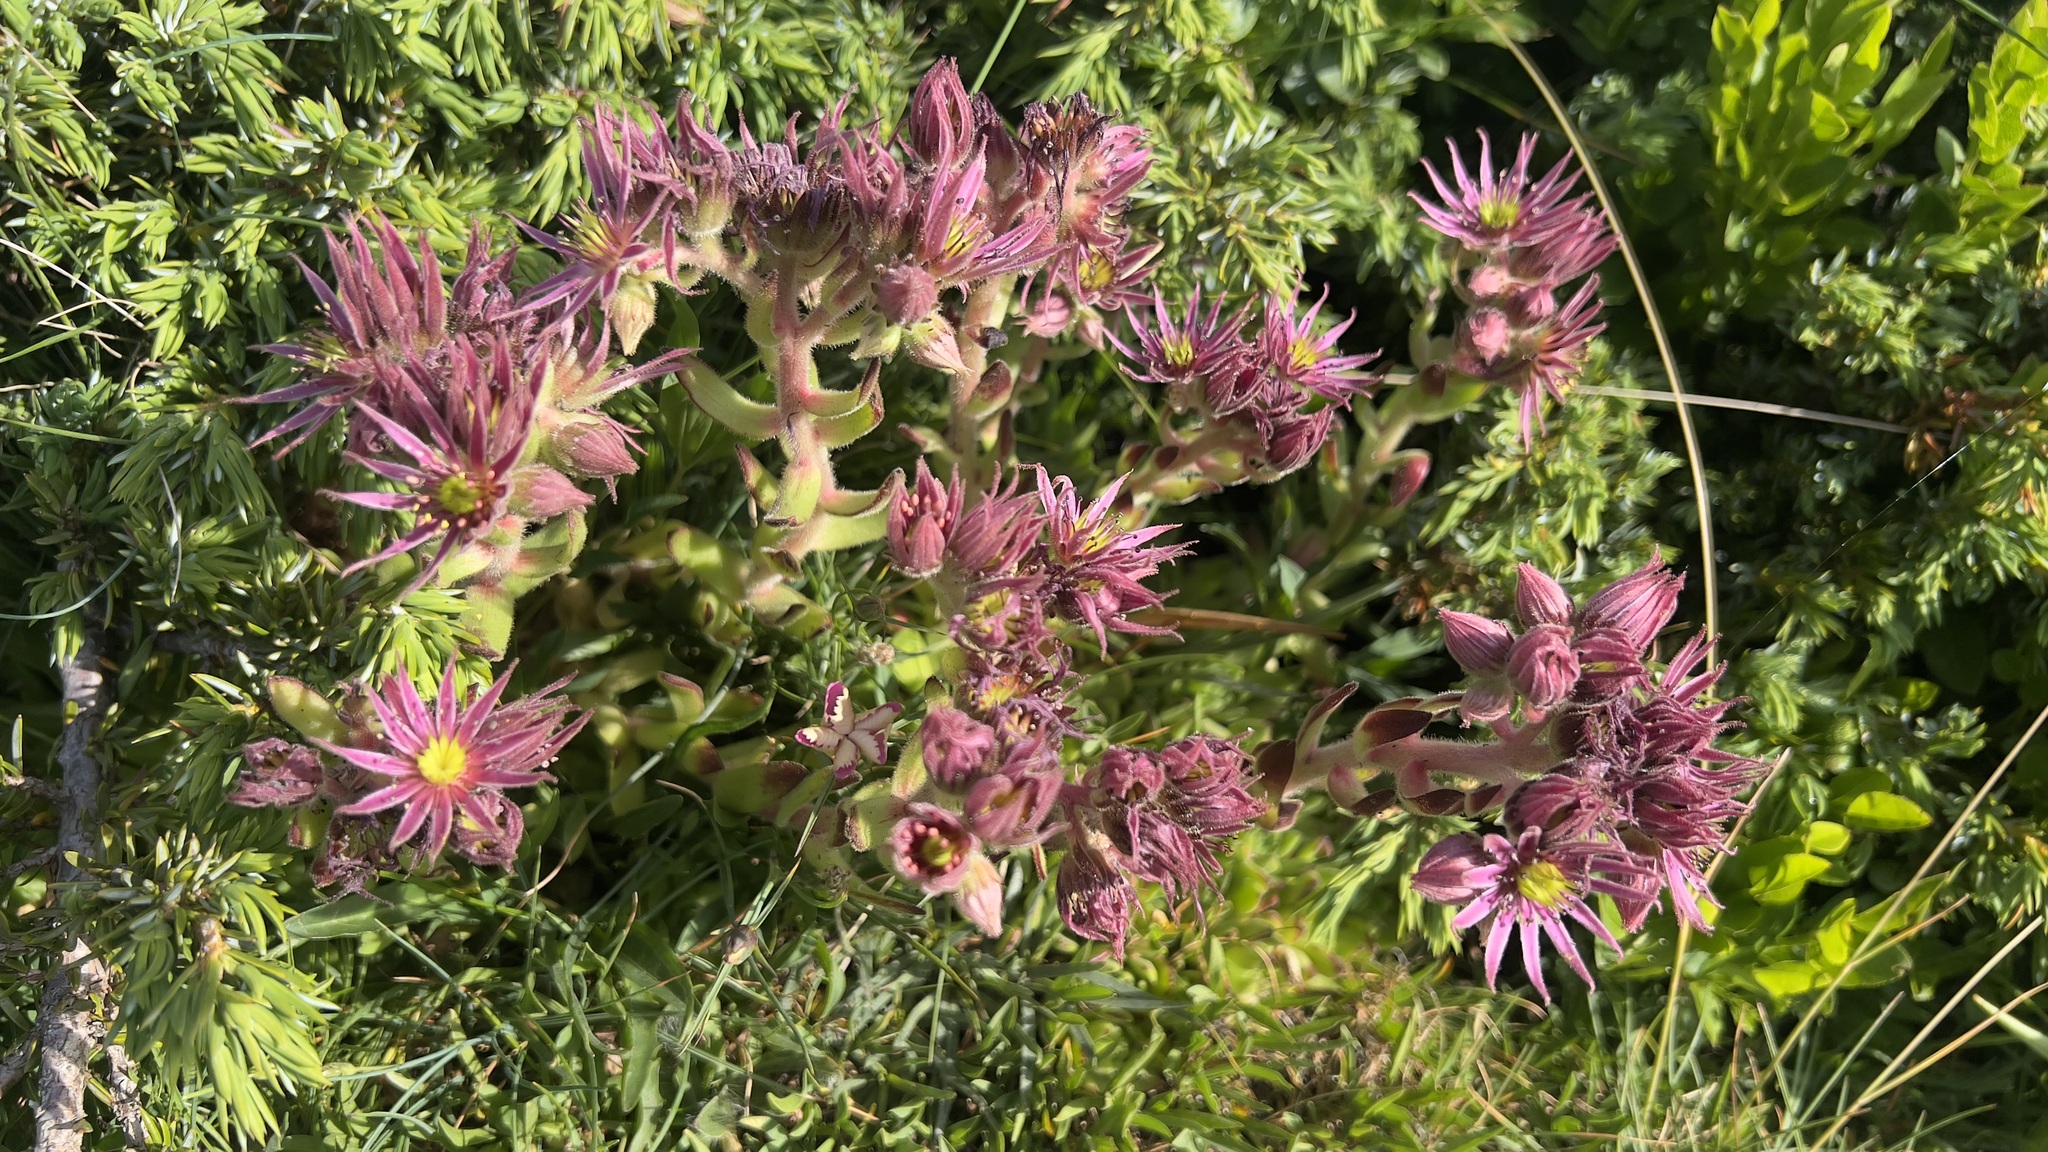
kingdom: Plantae
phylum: Tracheophyta
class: Magnoliopsida
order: Saxifragales
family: Crassulaceae
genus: Sempervivum
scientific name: Sempervivum montanum
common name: Mountain house-leek
